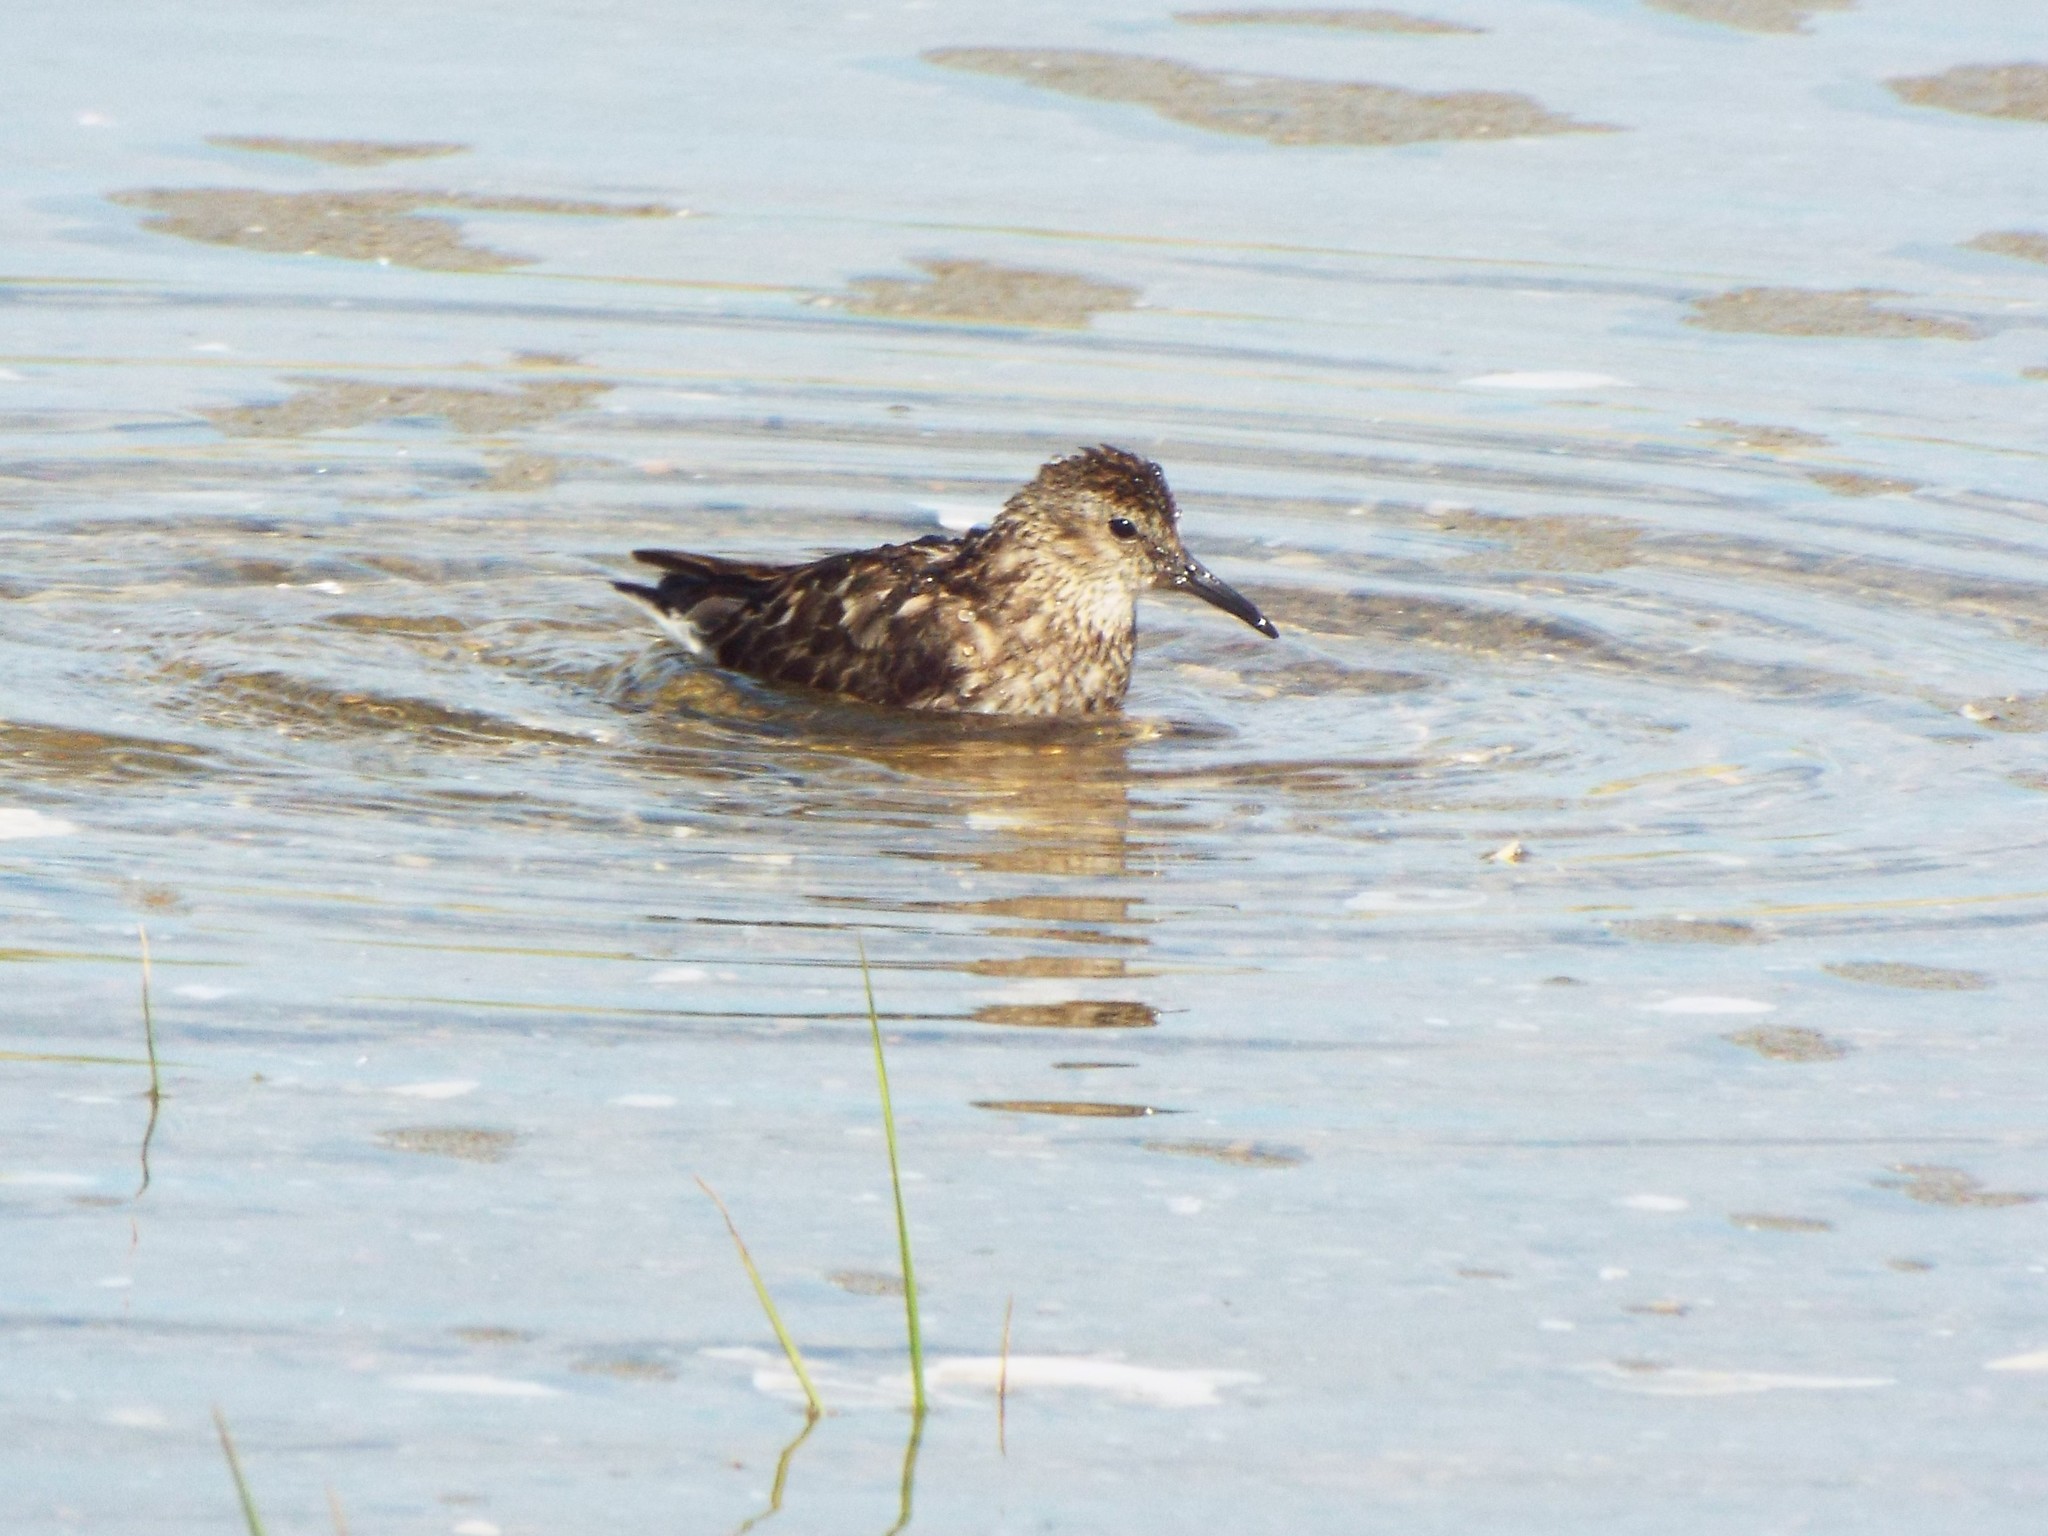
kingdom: Animalia
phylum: Chordata
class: Aves
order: Charadriiformes
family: Scolopacidae
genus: Calidris
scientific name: Calidris minutilla
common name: Least sandpiper
